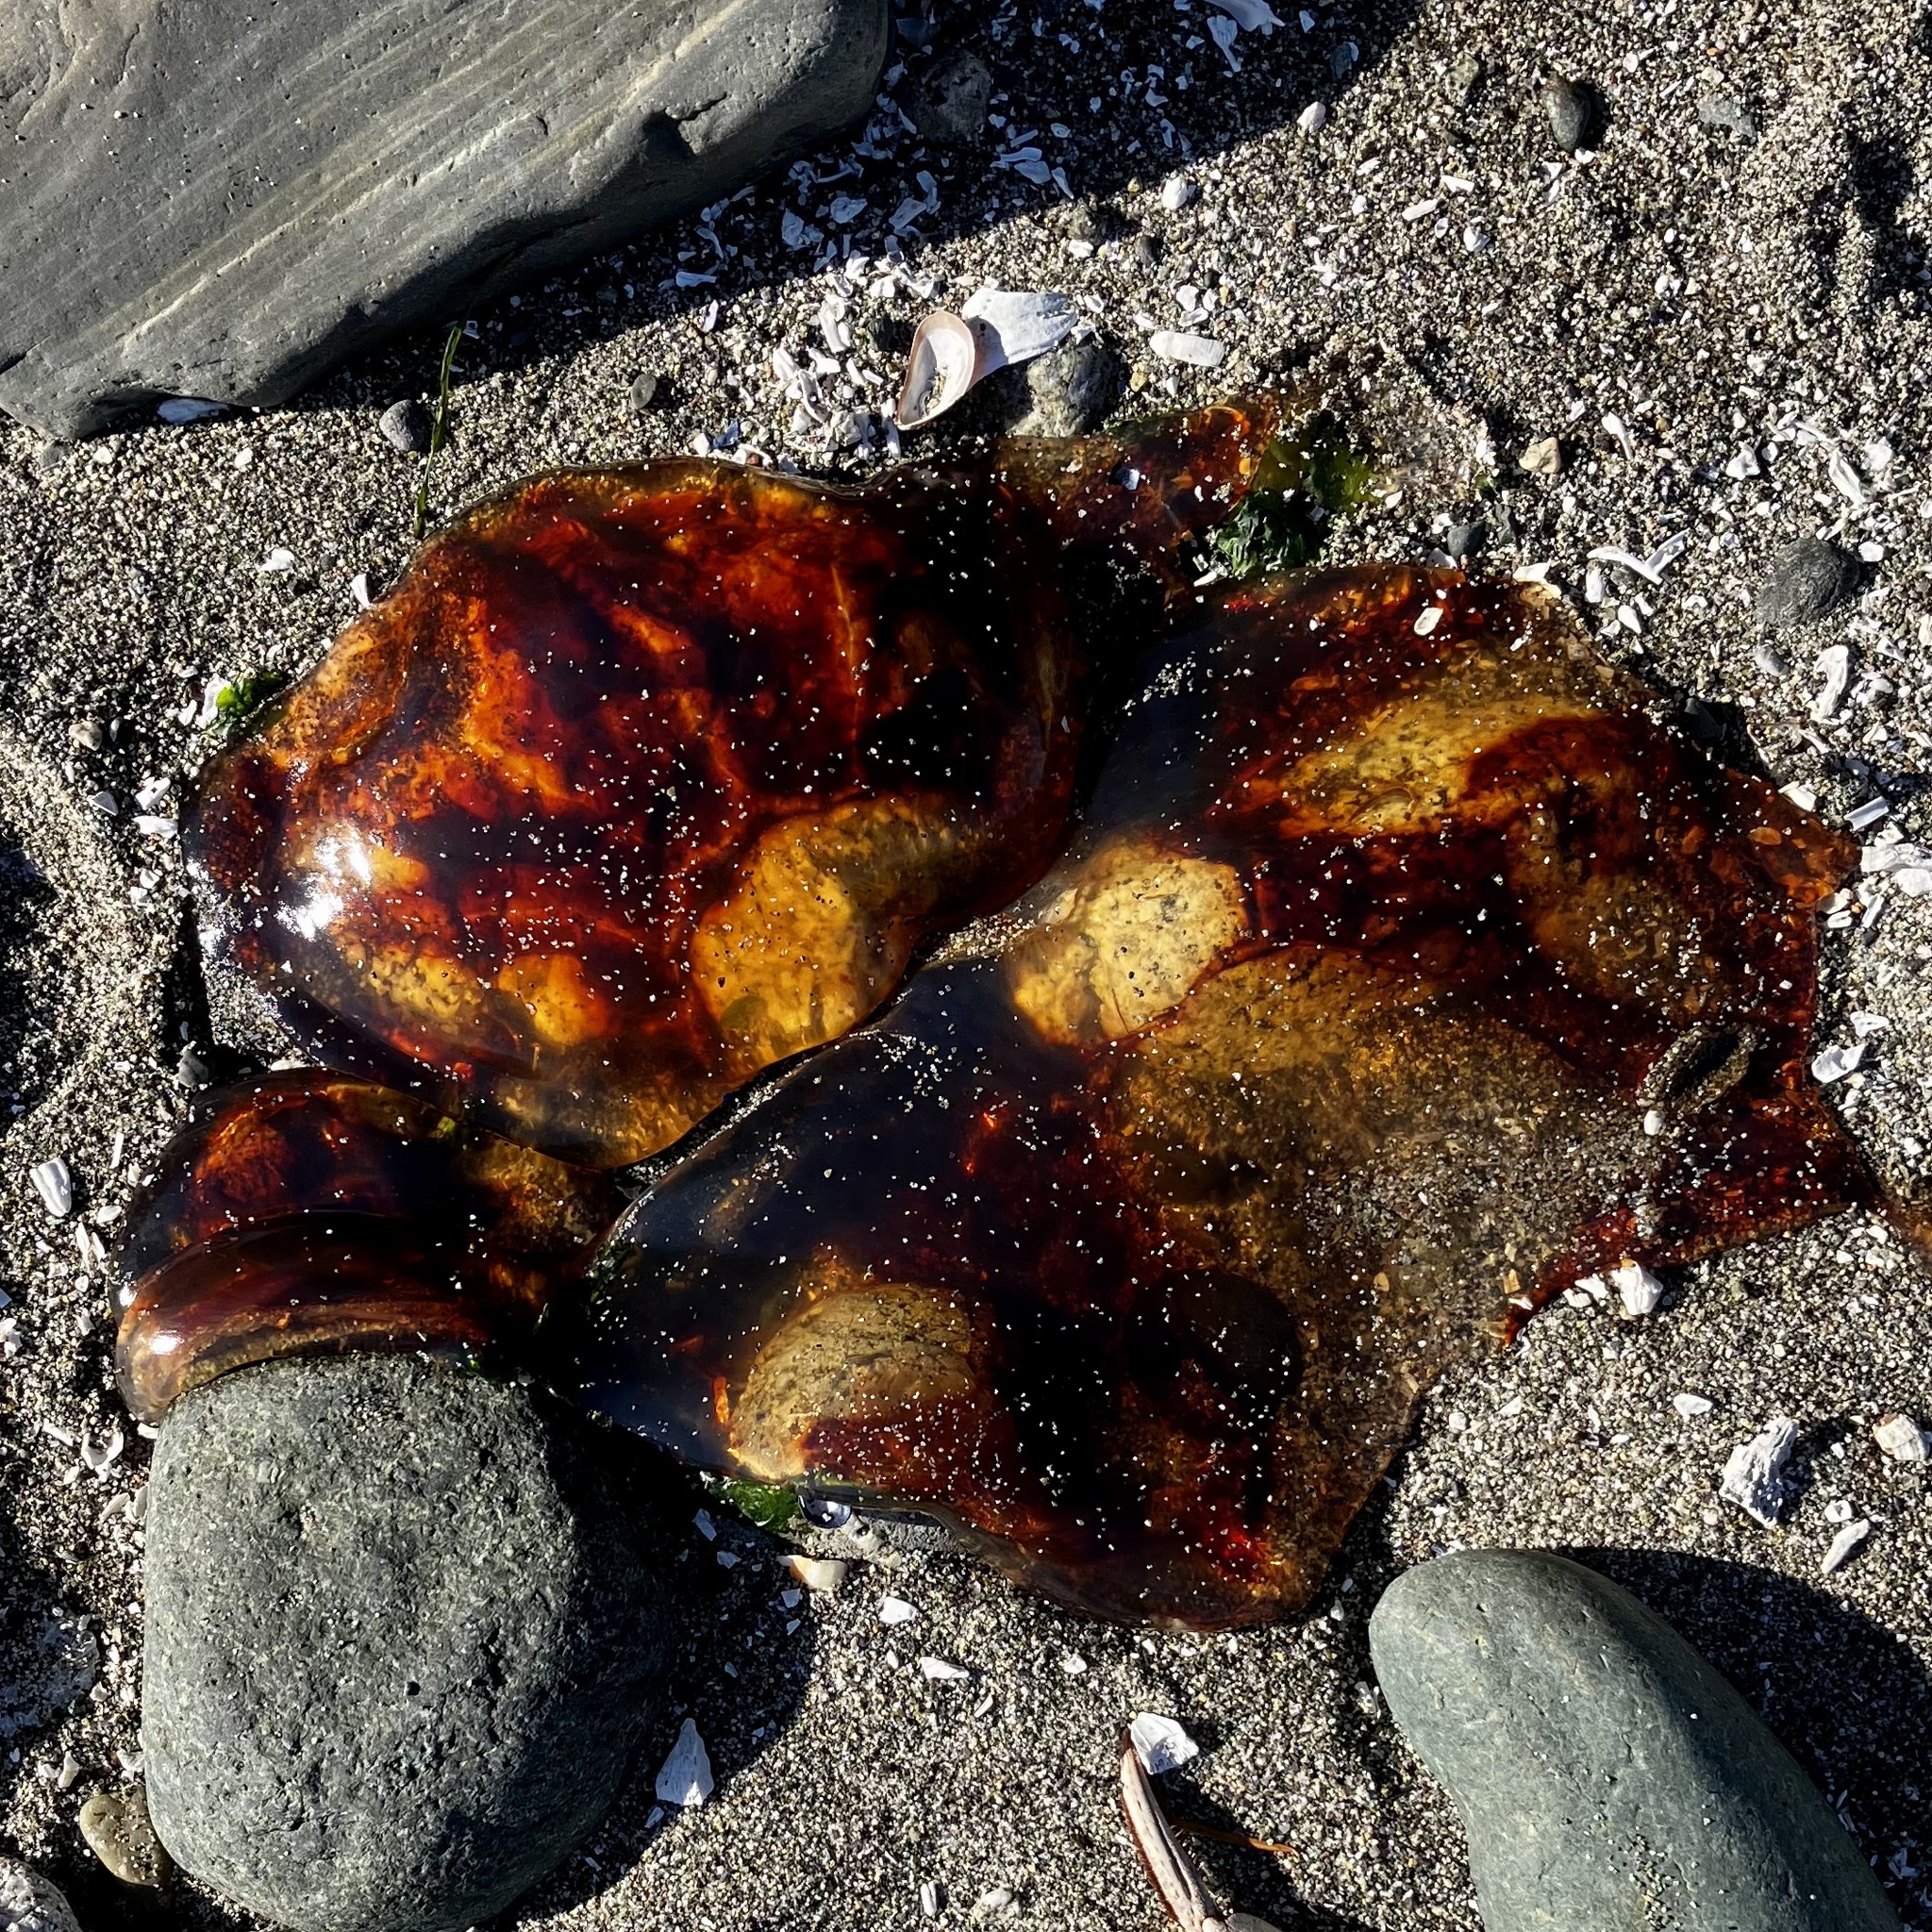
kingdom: Animalia
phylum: Cnidaria
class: Scyphozoa
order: Semaeostomeae
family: Cyaneidae
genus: Cyanea
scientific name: Cyanea ferruginea
